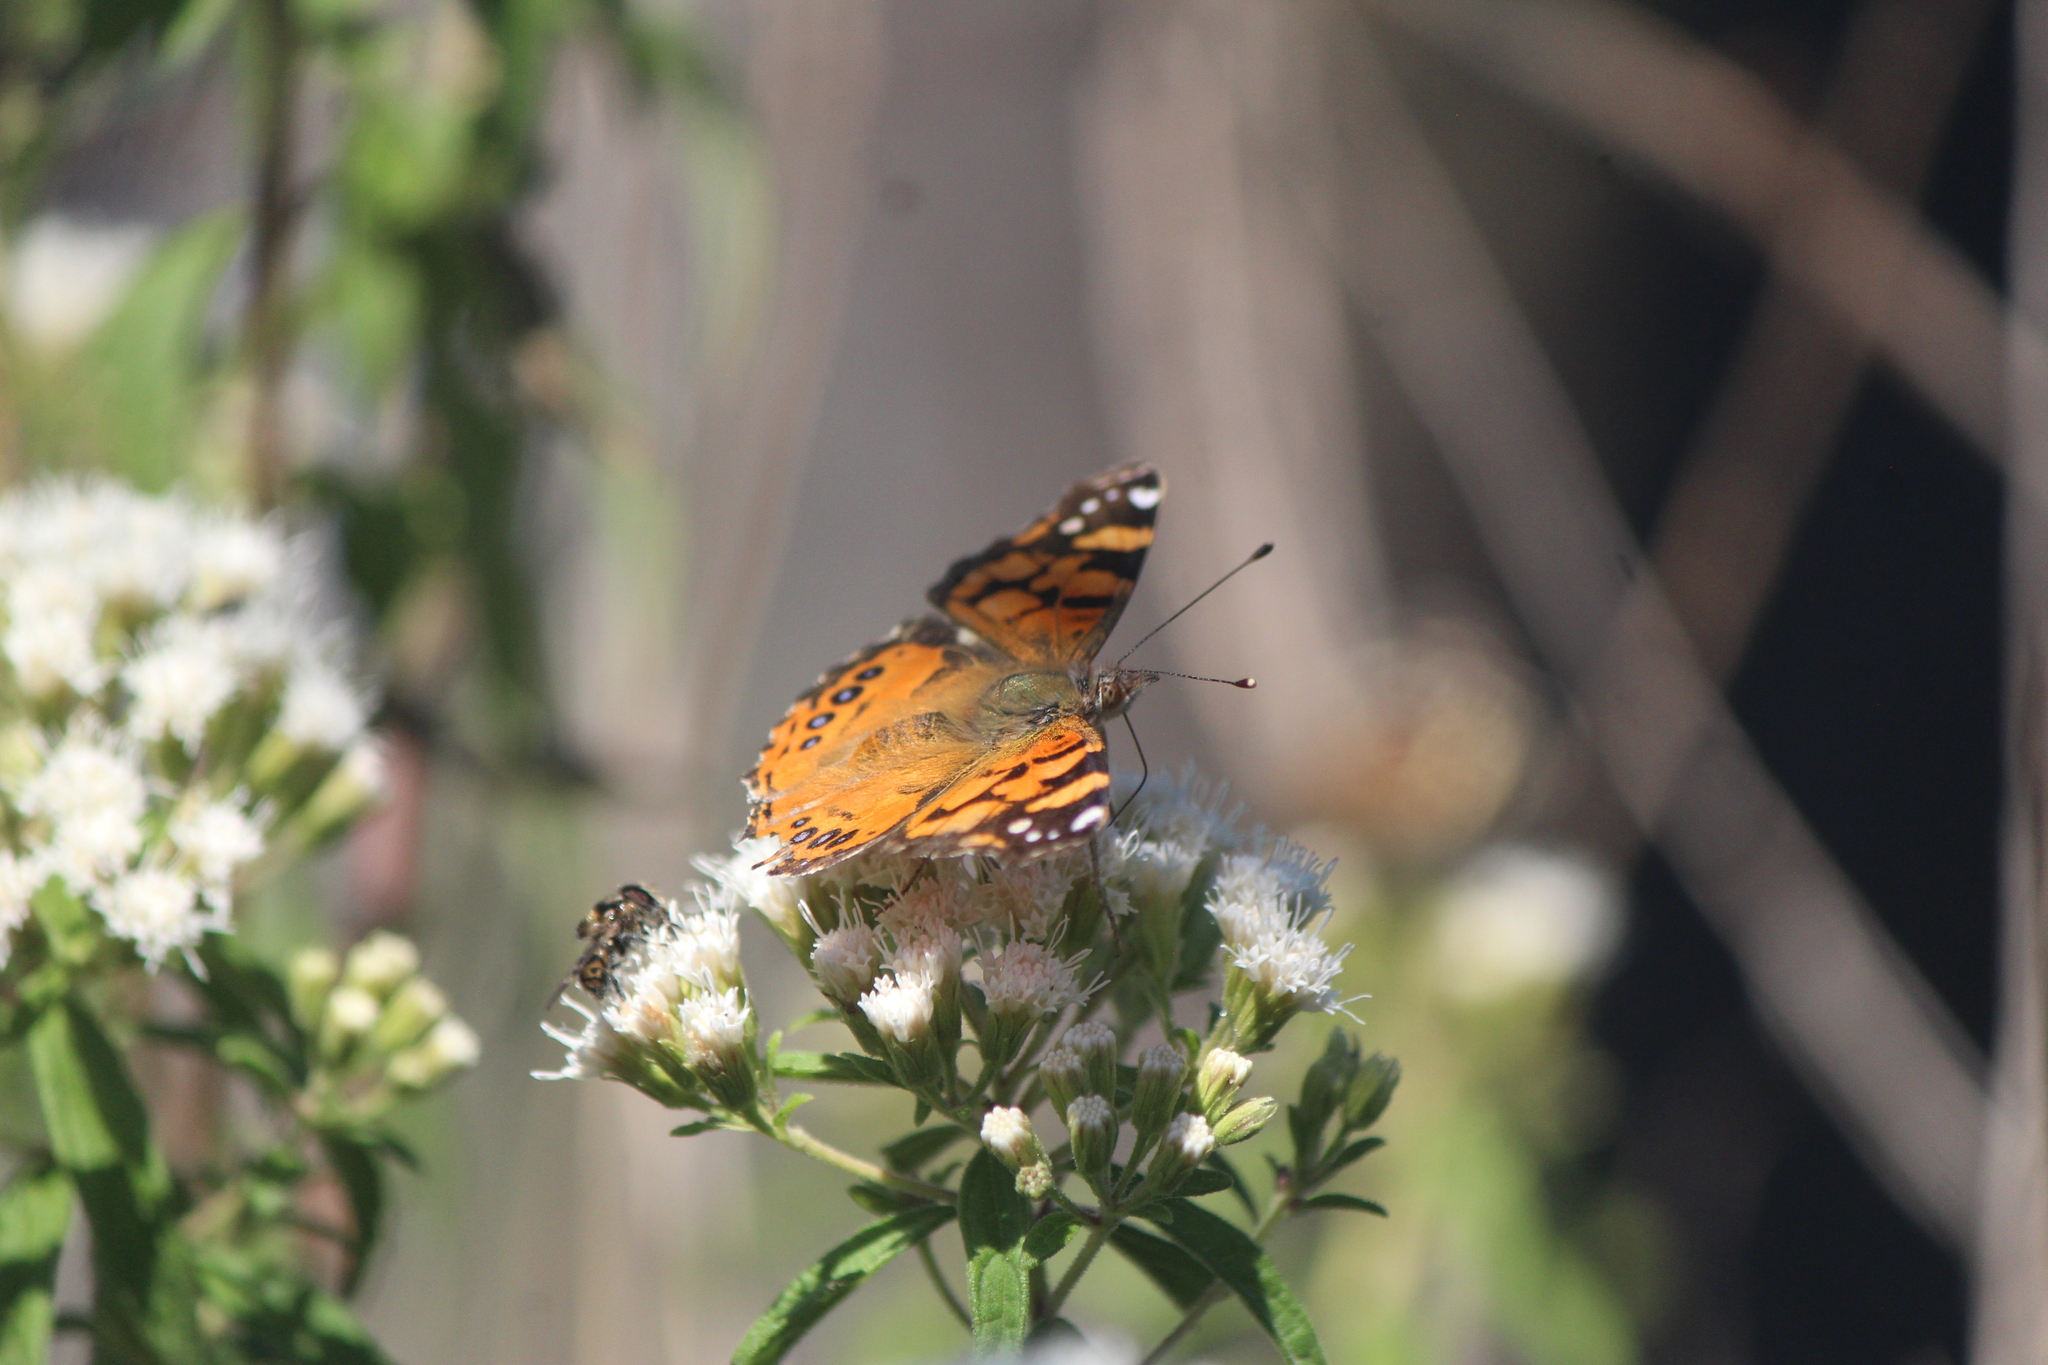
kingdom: Animalia
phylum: Arthropoda
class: Insecta
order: Lepidoptera
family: Nymphalidae
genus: Vanessa
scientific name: Vanessa annabella
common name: West coast lady
